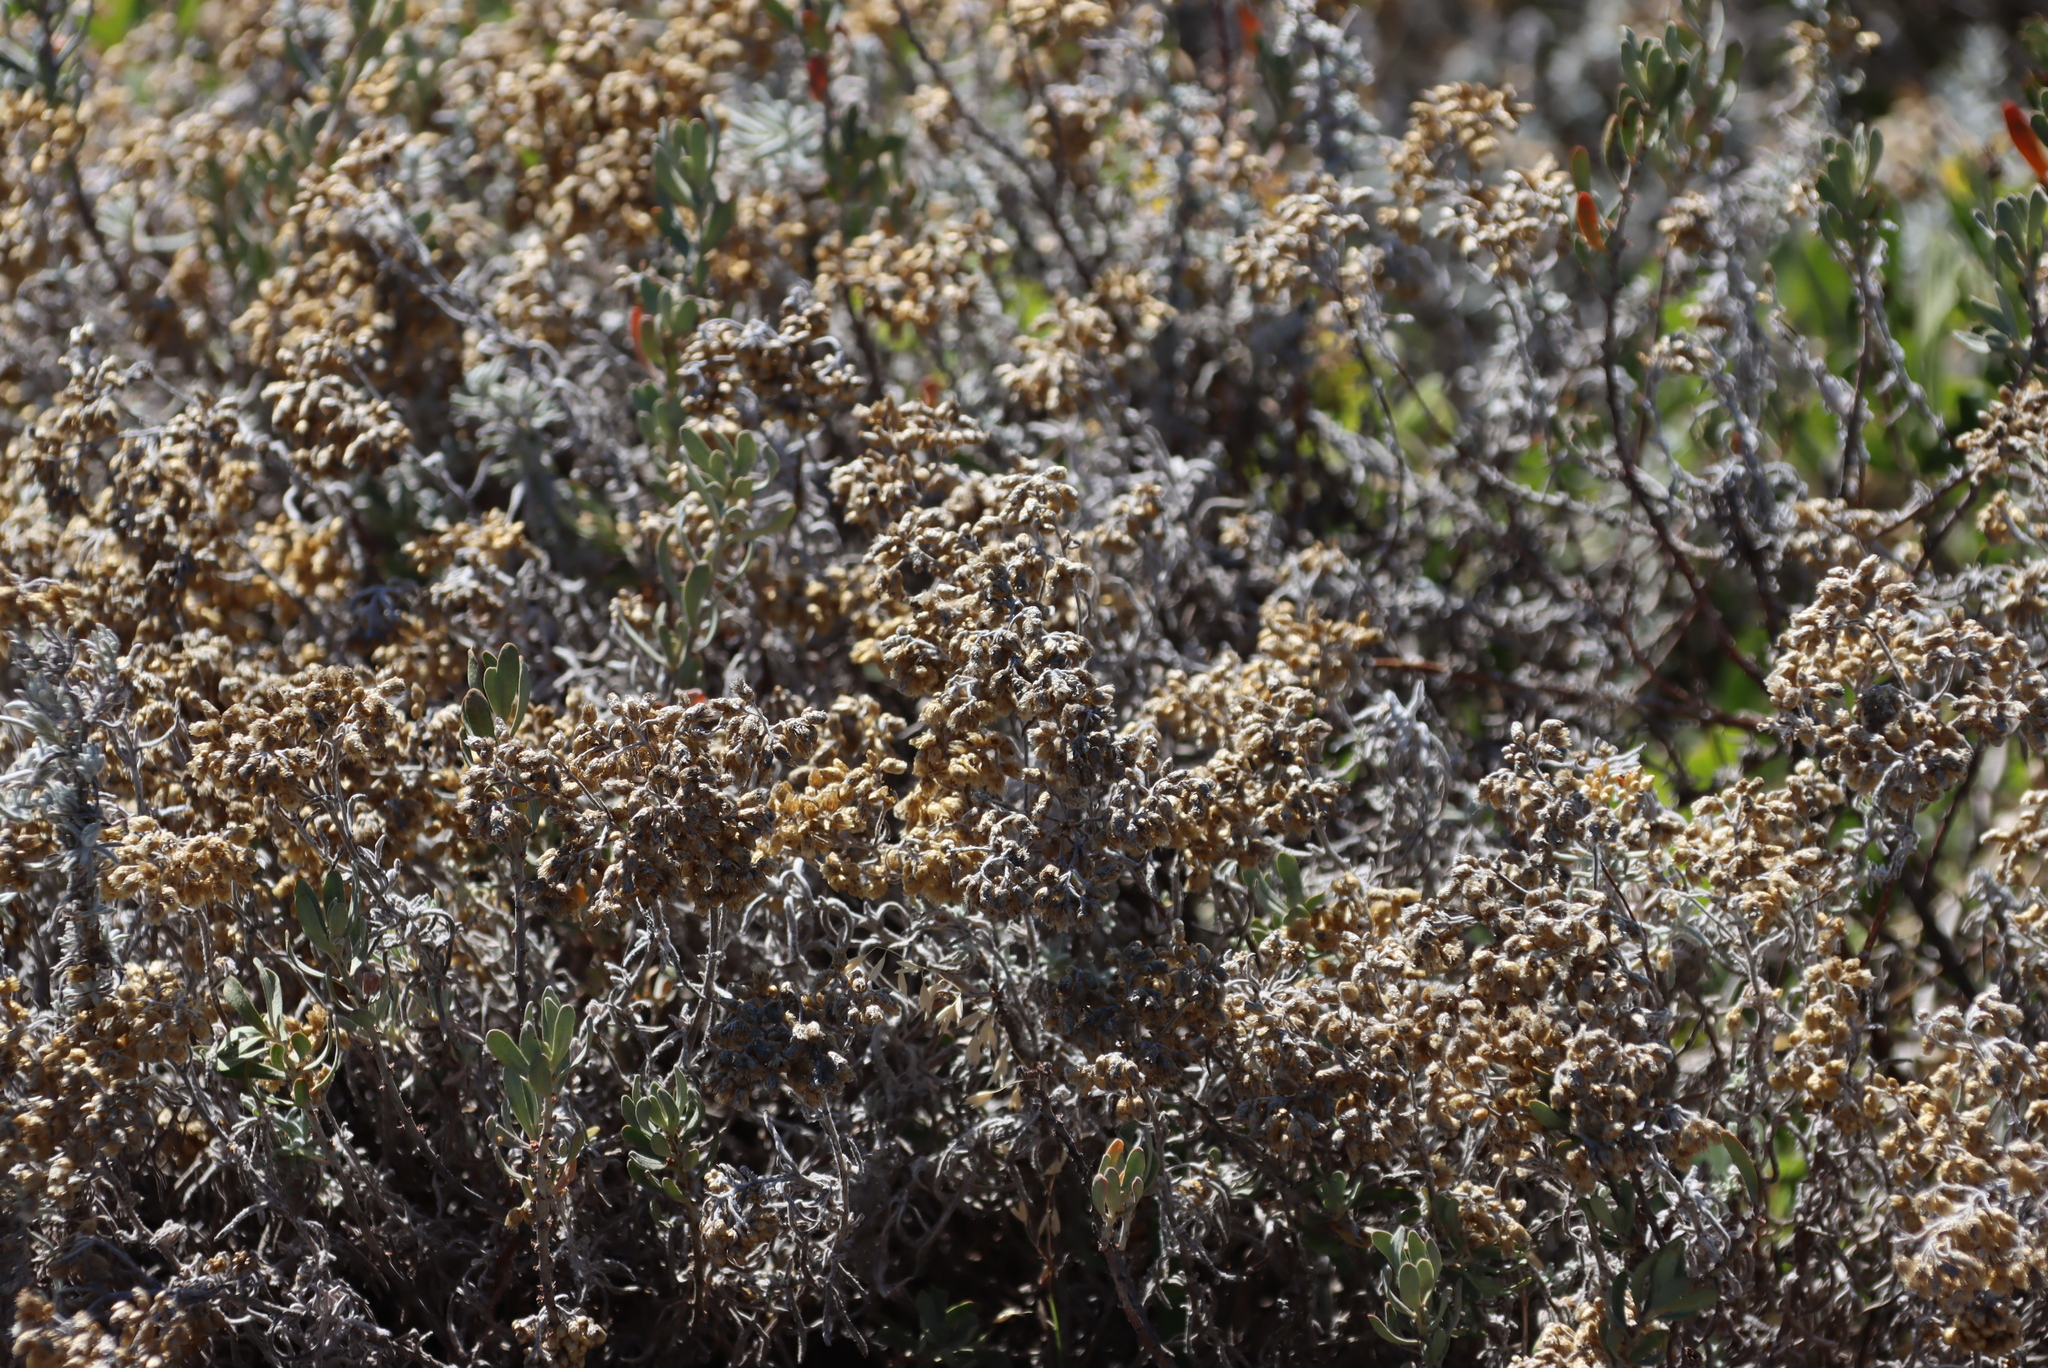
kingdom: Plantae
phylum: Tracheophyta
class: Magnoliopsida
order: Asterales
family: Asteraceae
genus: Helichrysum
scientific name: Helichrysum revolutum
